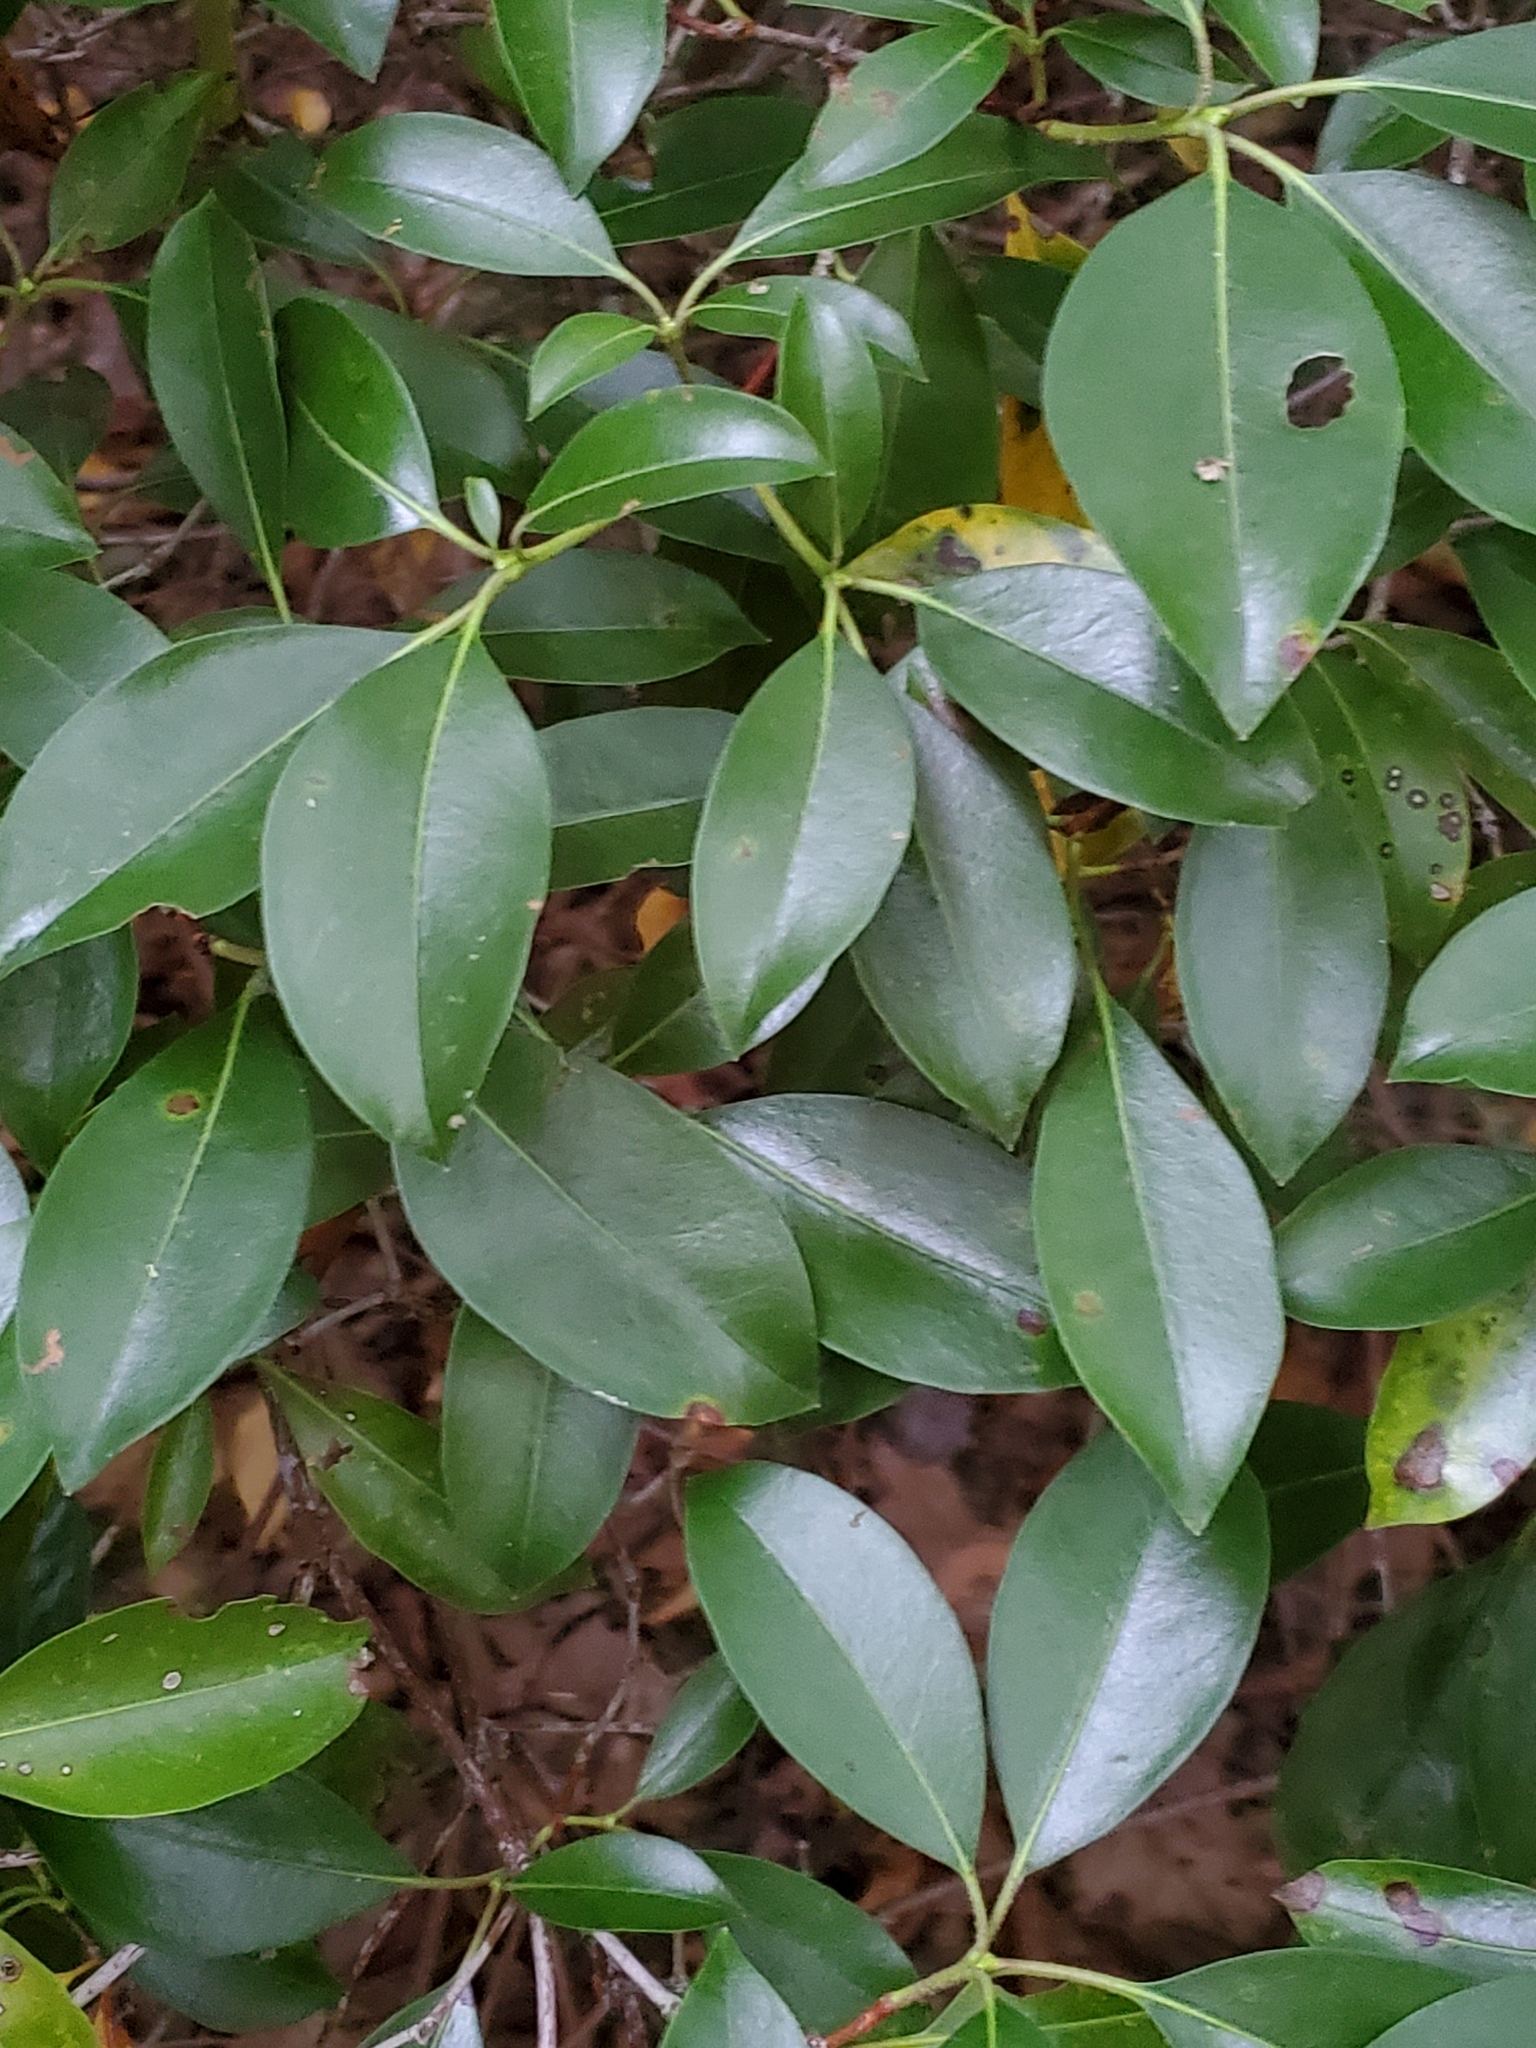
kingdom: Plantae
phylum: Tracheophyta
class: Magnoliopsida
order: Ericales
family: Ericaceae
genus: Kalmia
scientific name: Kalmia latifolia
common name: Mountain-laurel
